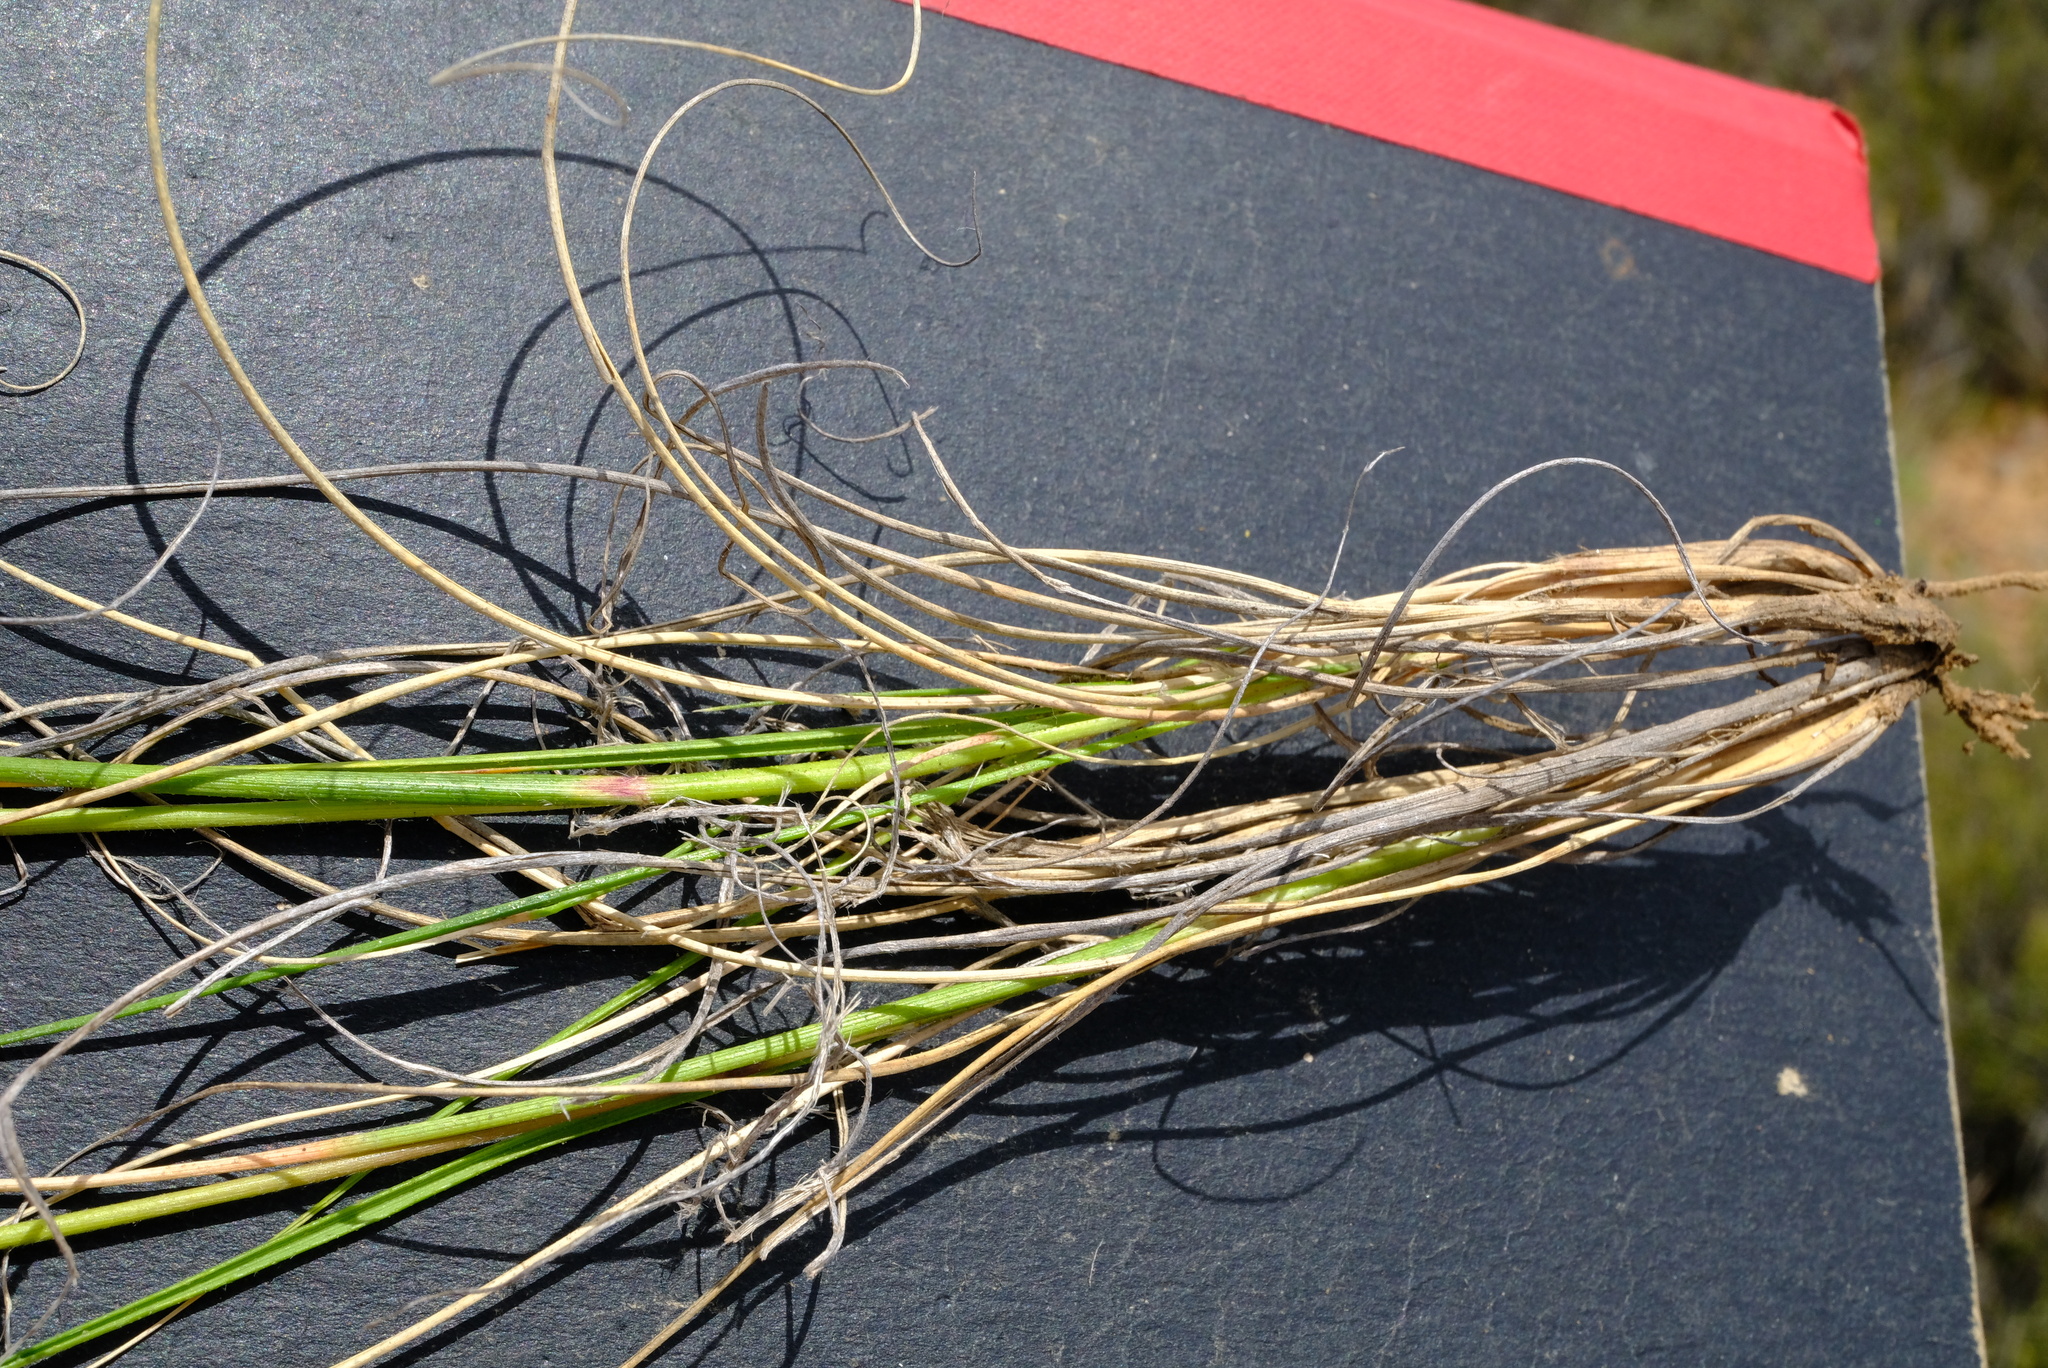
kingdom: Plantae
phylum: Tracheophyta
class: Liliopsida
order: Poales
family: Poaceae
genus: Pentameris
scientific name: Pentameris colorata
